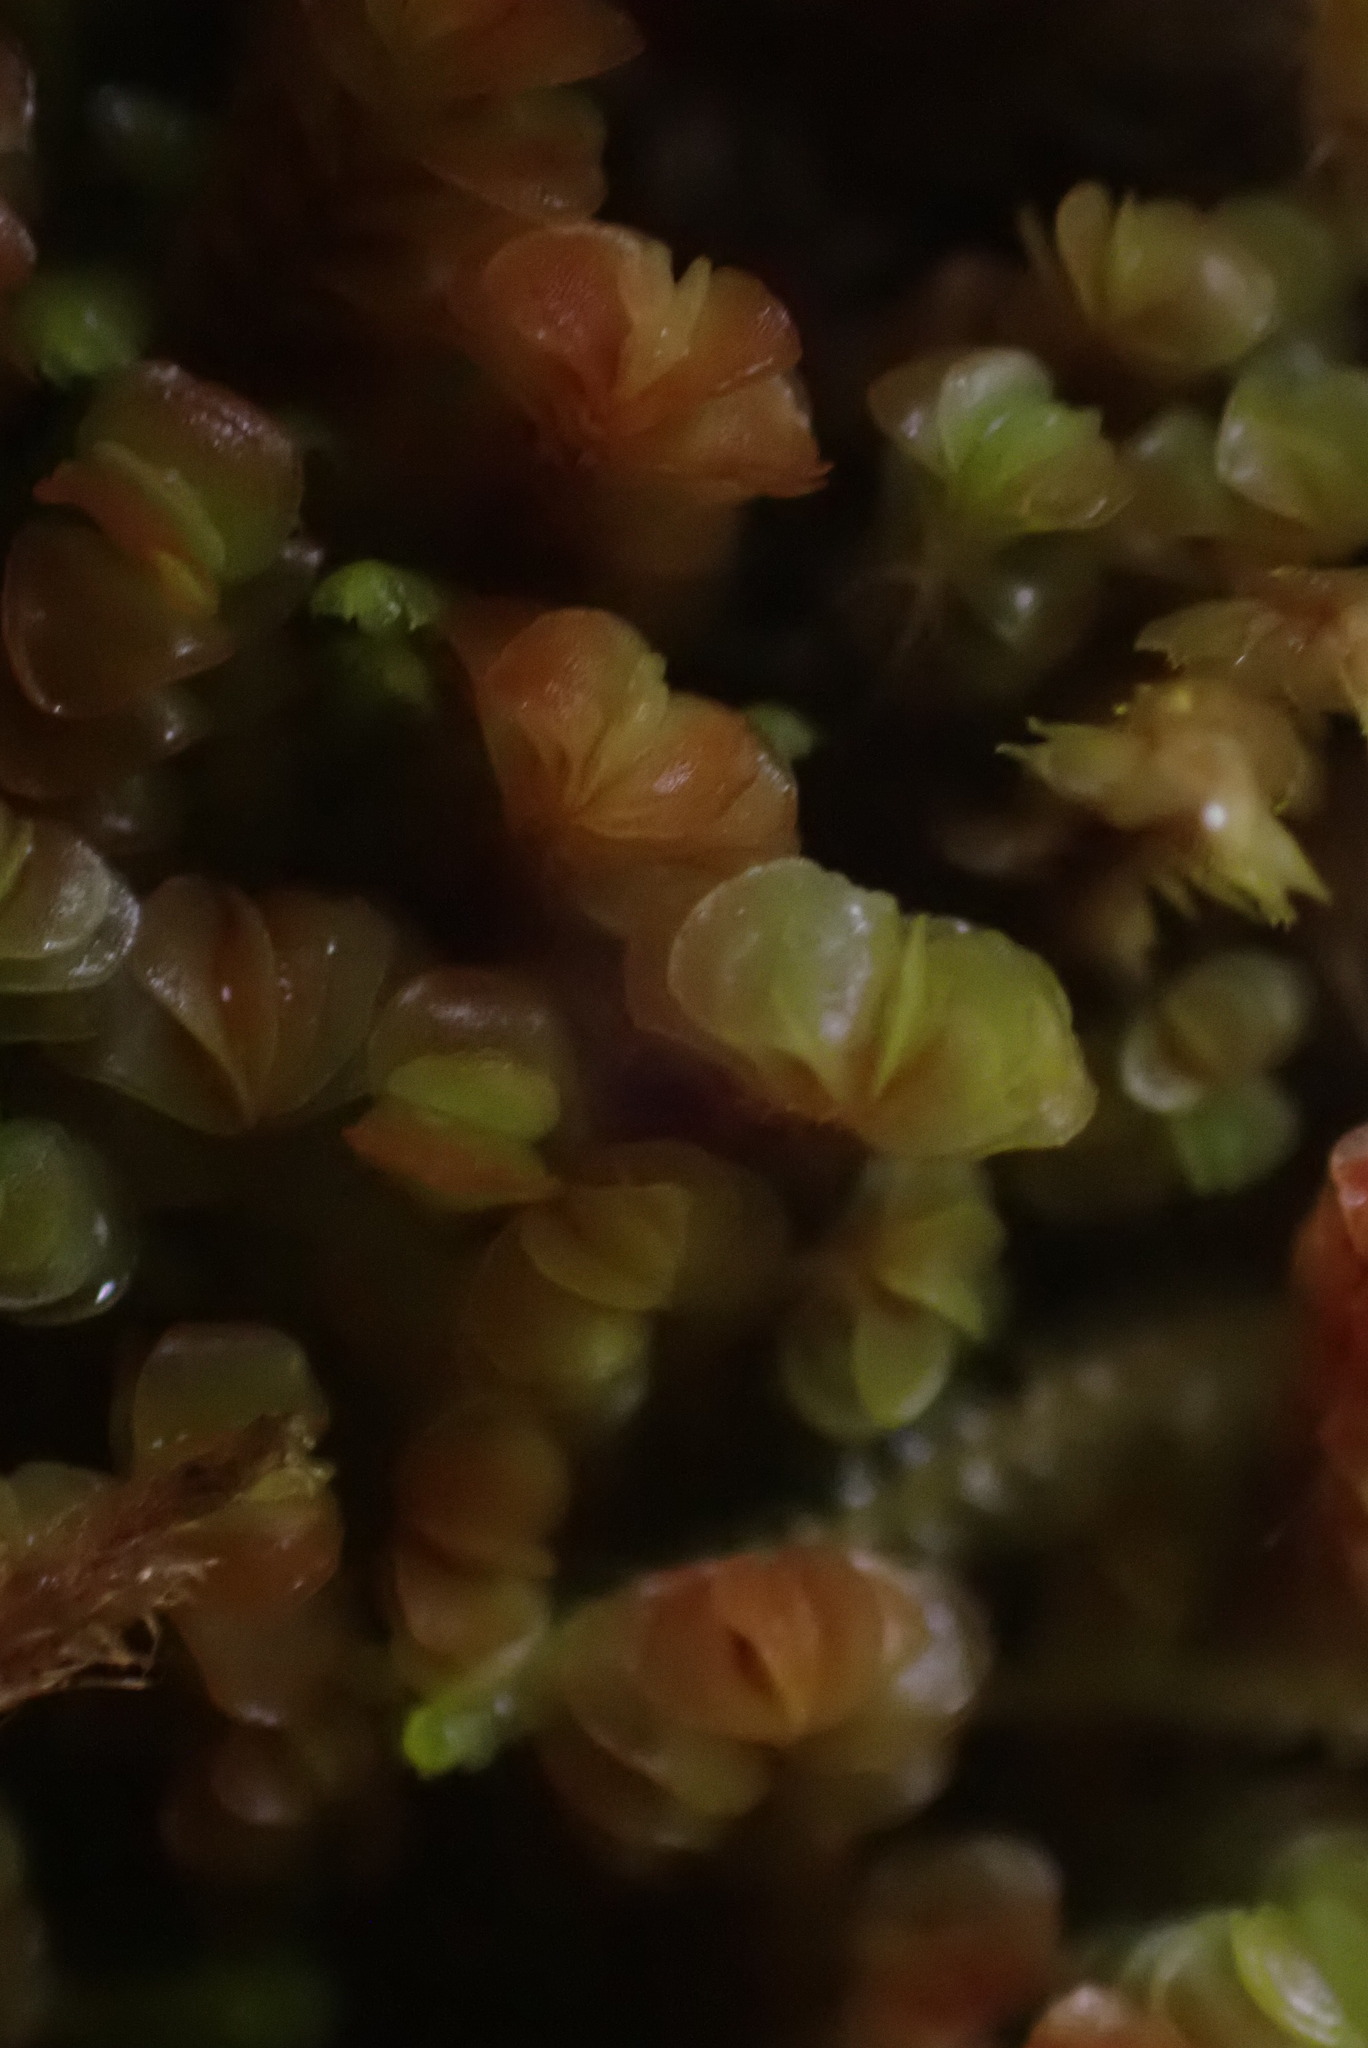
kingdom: Plantae
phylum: Marchantiophyta
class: Jungermanniopsida
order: Jungermanniales
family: Myliaceae
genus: Mylia
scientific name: Mylia taylorii
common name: Taylor s flapwort
